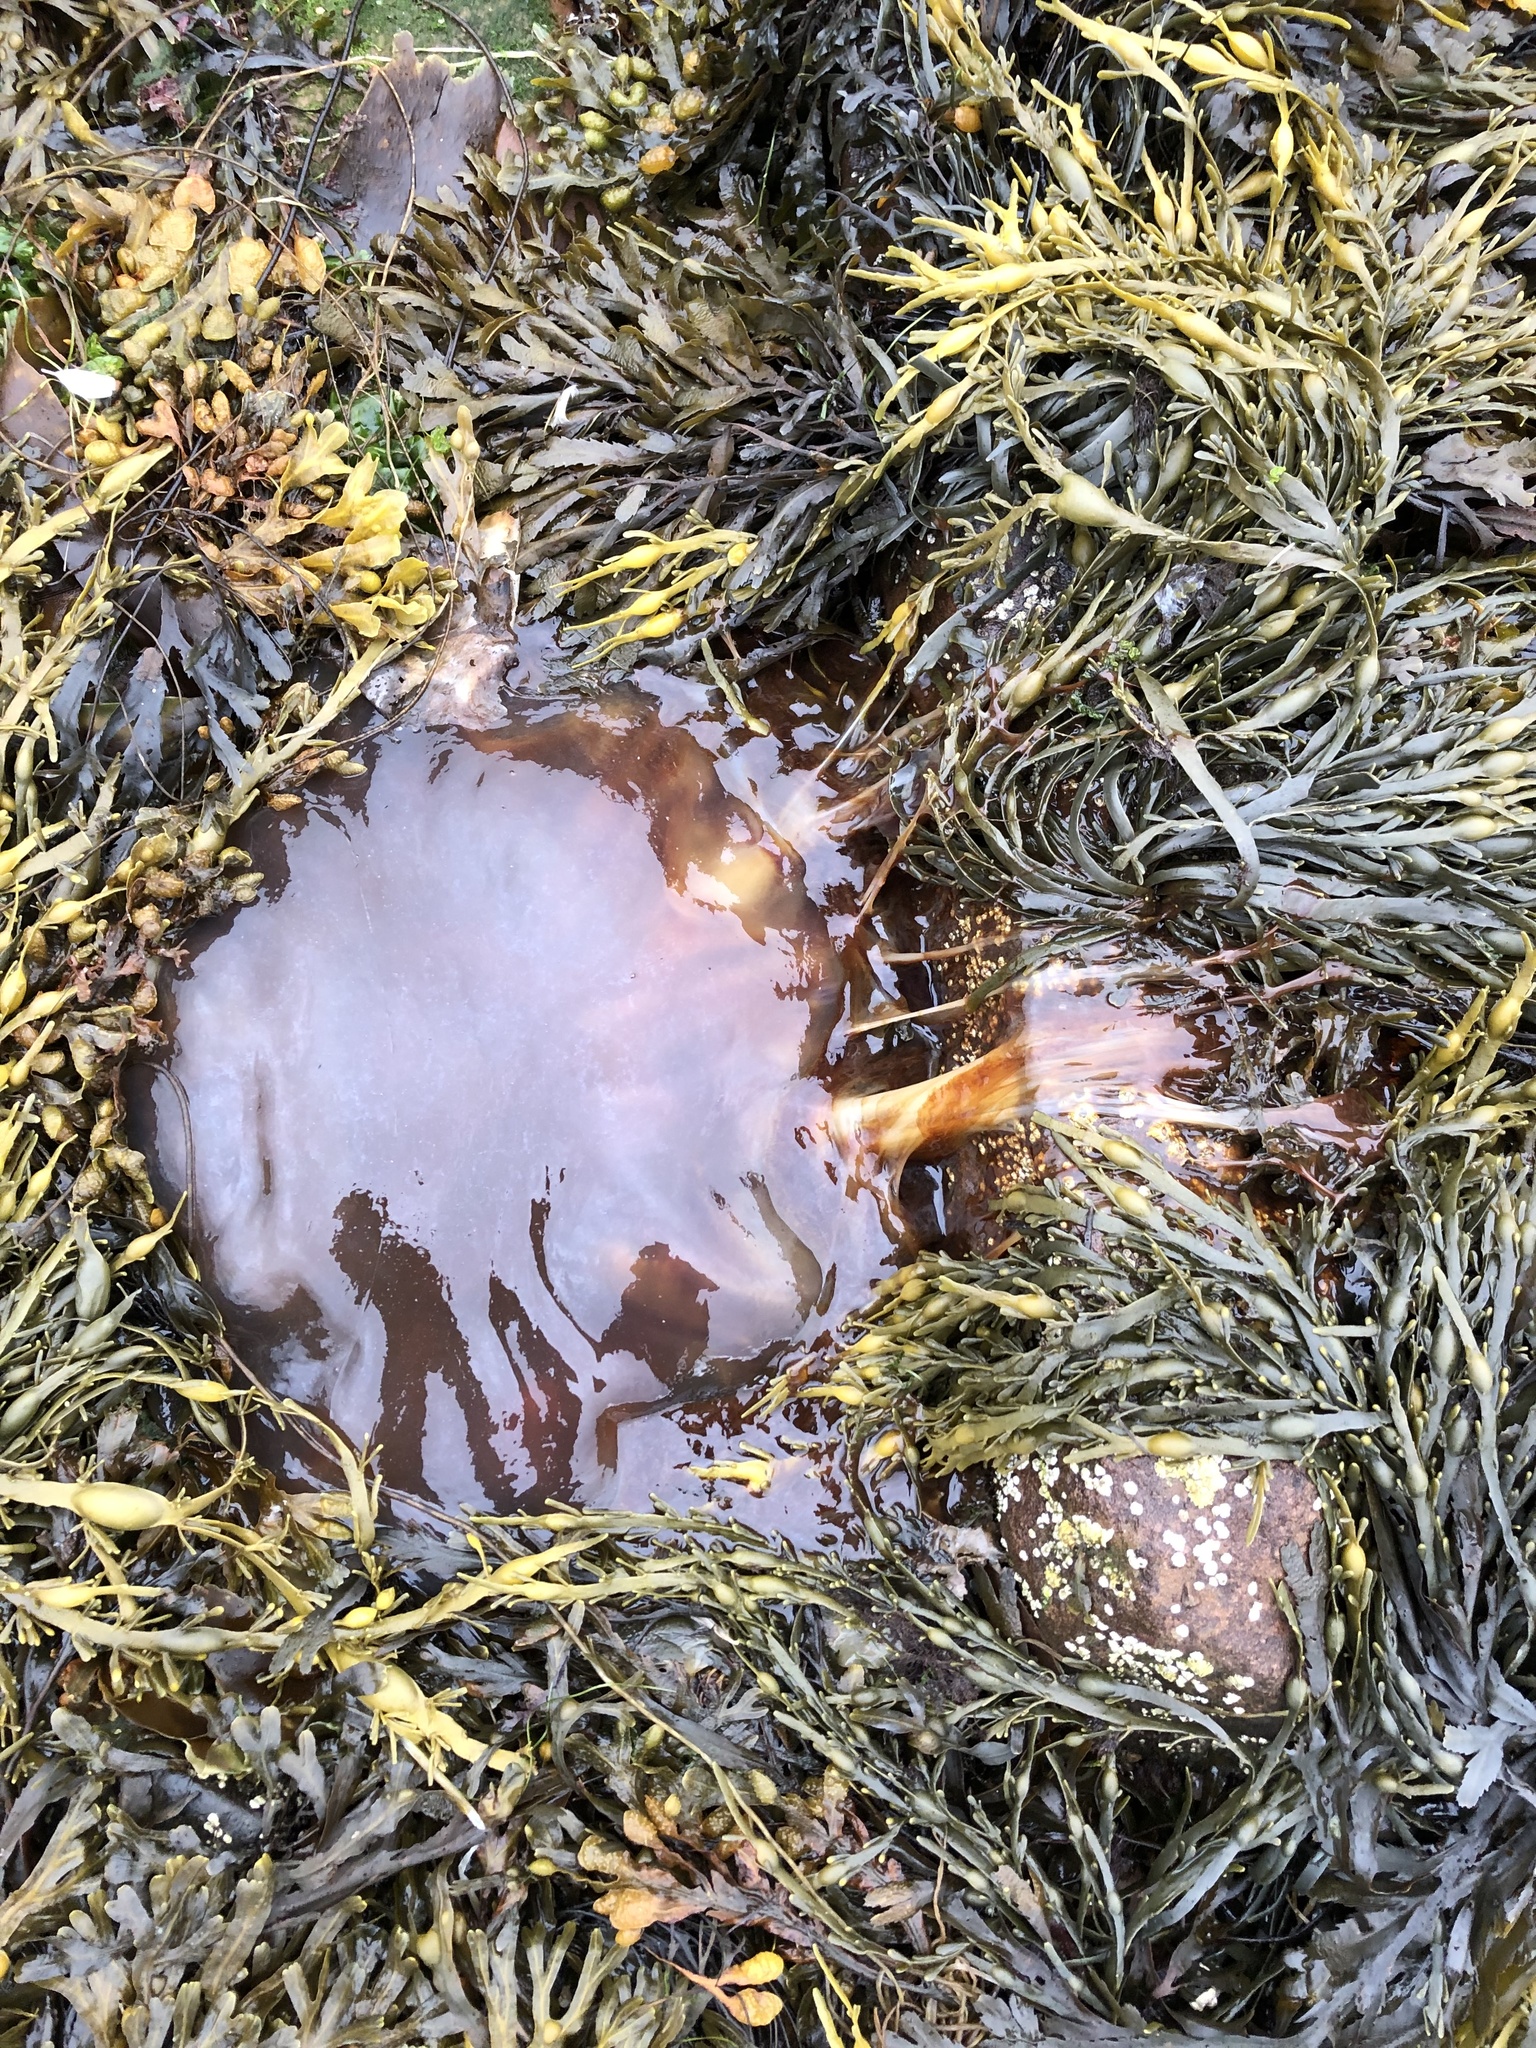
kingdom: Animalia
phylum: Cnidaria
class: Scyphozoa
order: Semaeostomeae
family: Cyaneidae
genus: Cyanea
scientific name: Cyanea capillata
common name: Lion's mane jellyfish
